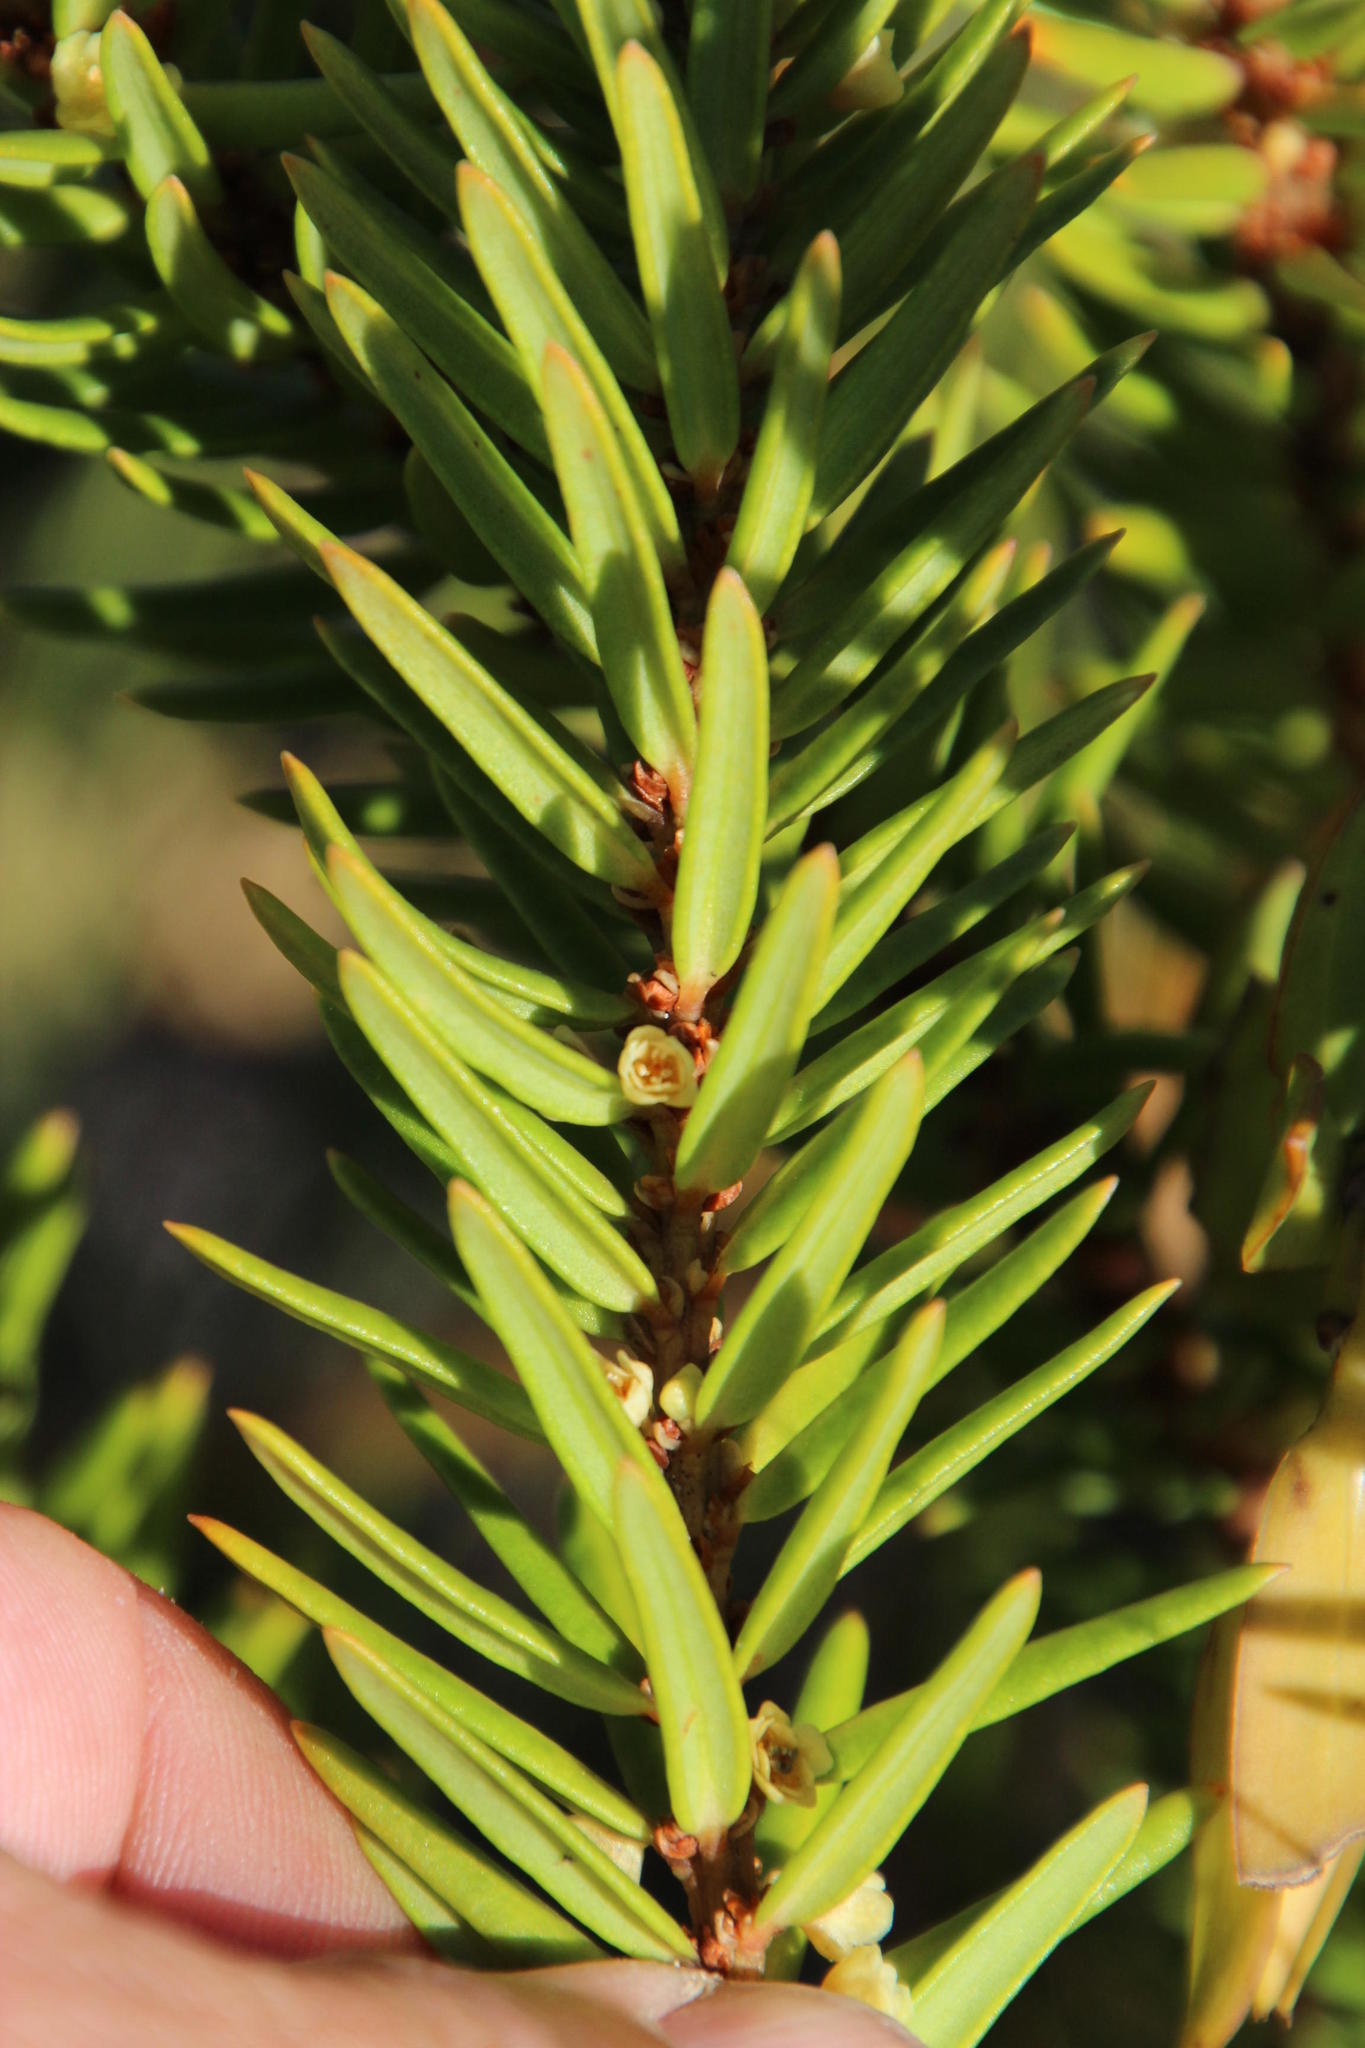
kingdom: Plantae
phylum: Tracheophyta
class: Magnoliopsida
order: Malpighiales
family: Peraceae
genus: Clutia
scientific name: Clutia polygonoides
